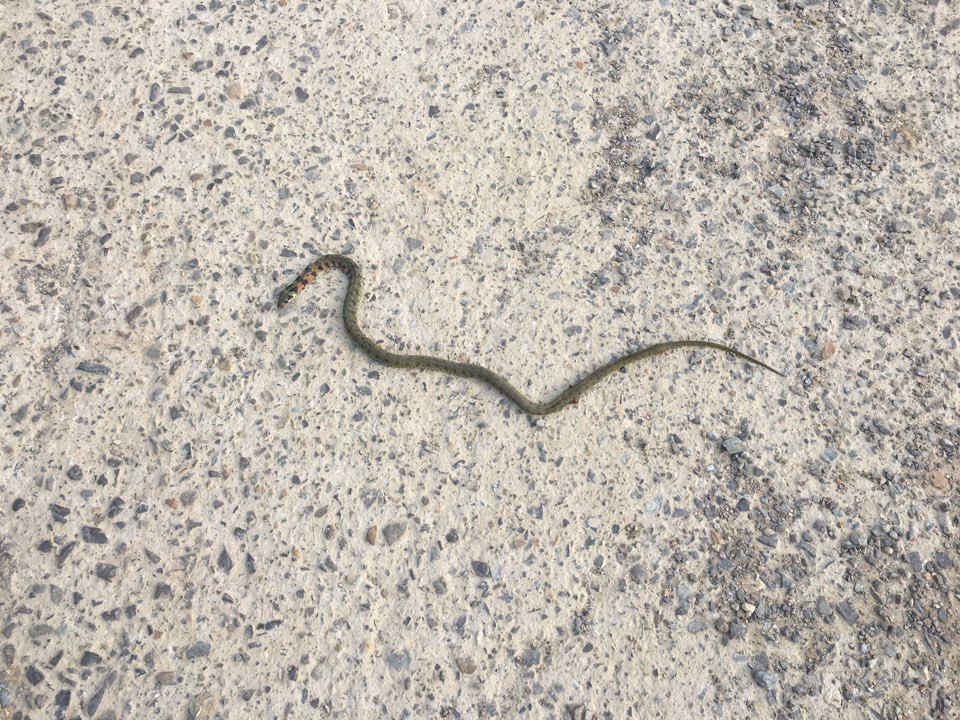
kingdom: Animalia
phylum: Chordata
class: Squamata
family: Colubridae
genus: Rhabdophis
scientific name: Rhabdophis tigrinus
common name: Tiger keelback
